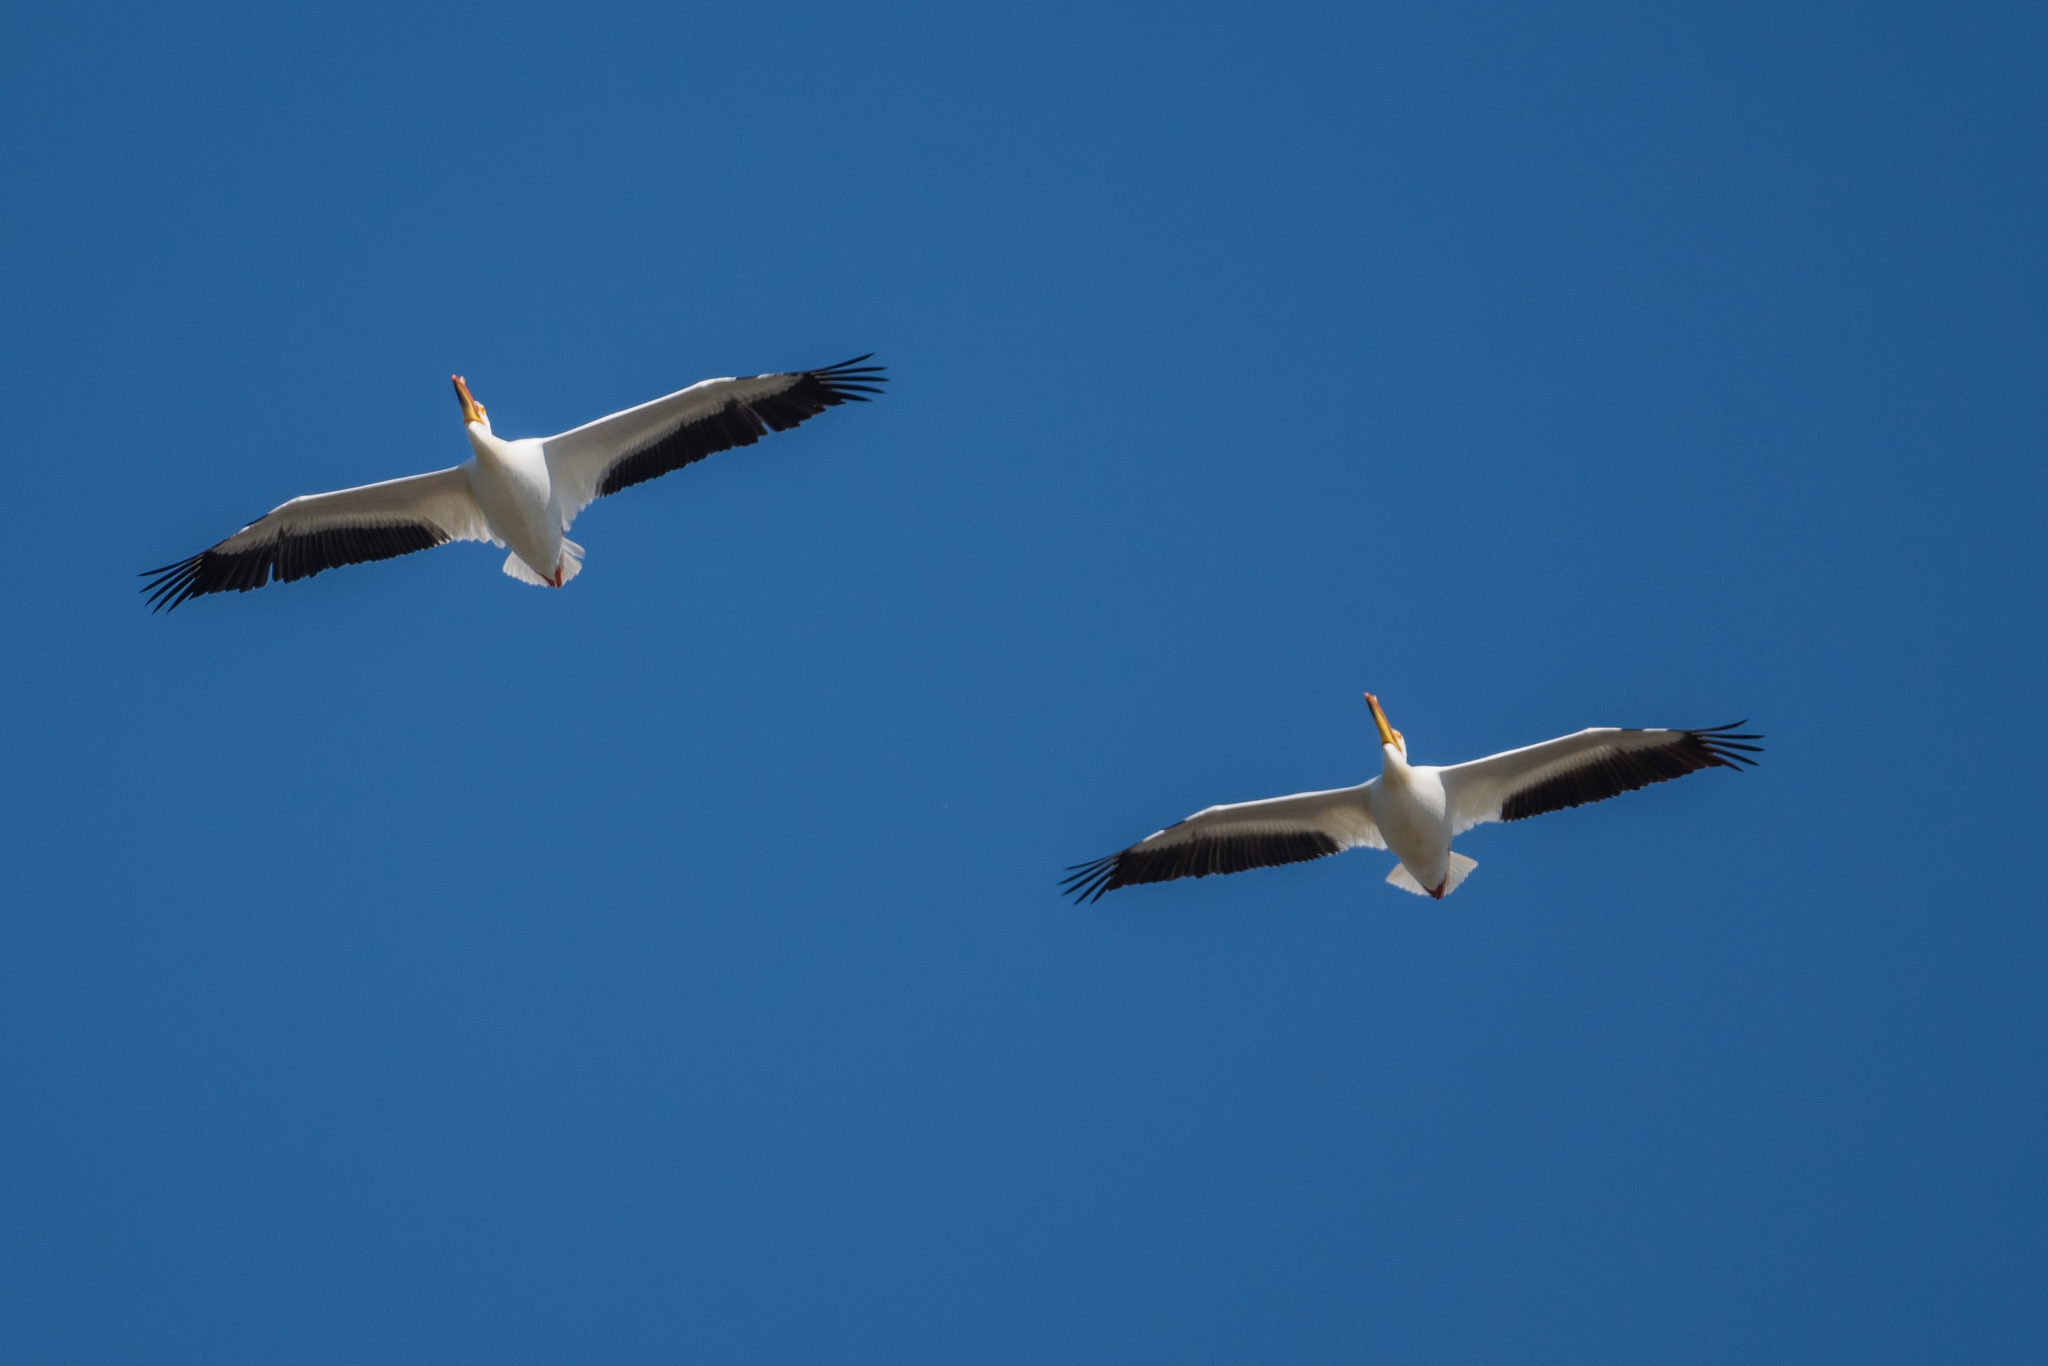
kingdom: Animalia
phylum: Chordata
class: Aves
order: Pelecaniformes
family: Pelecanidae
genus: Pelecanus
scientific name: Pelecanus erythrorhynchos
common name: American white pelican
